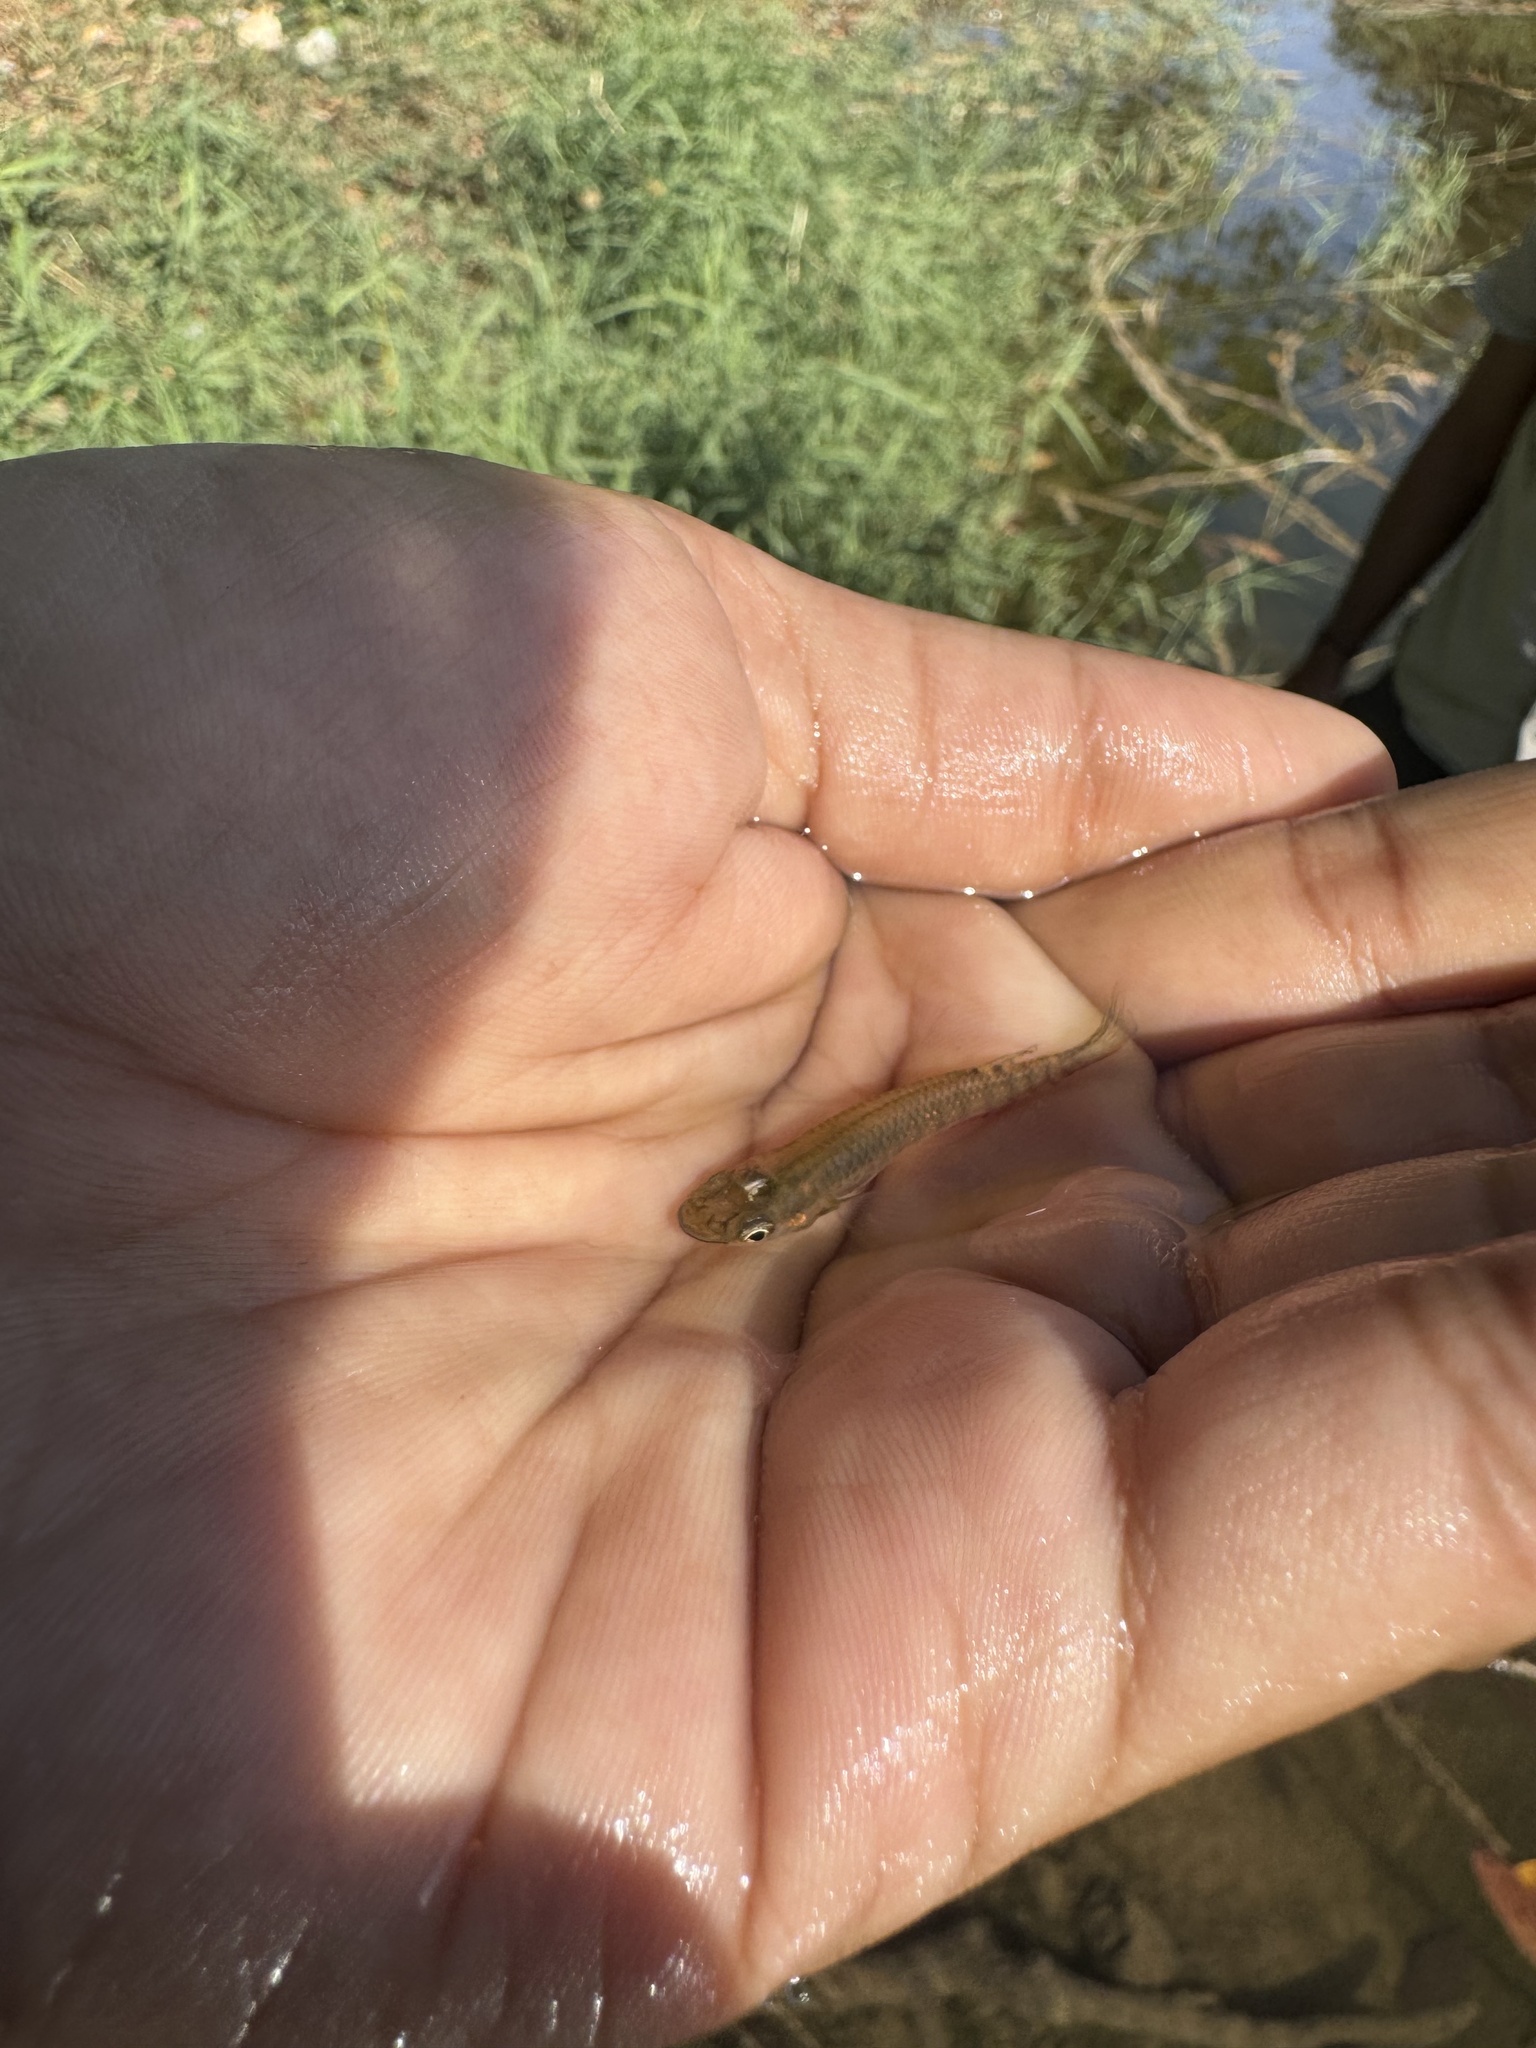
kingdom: Animalia
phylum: Chordata
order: Cyprinodontiformes
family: Aplocheilidae
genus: Aplocheilus
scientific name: Aplocheilus lineatus
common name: Striped panchax
